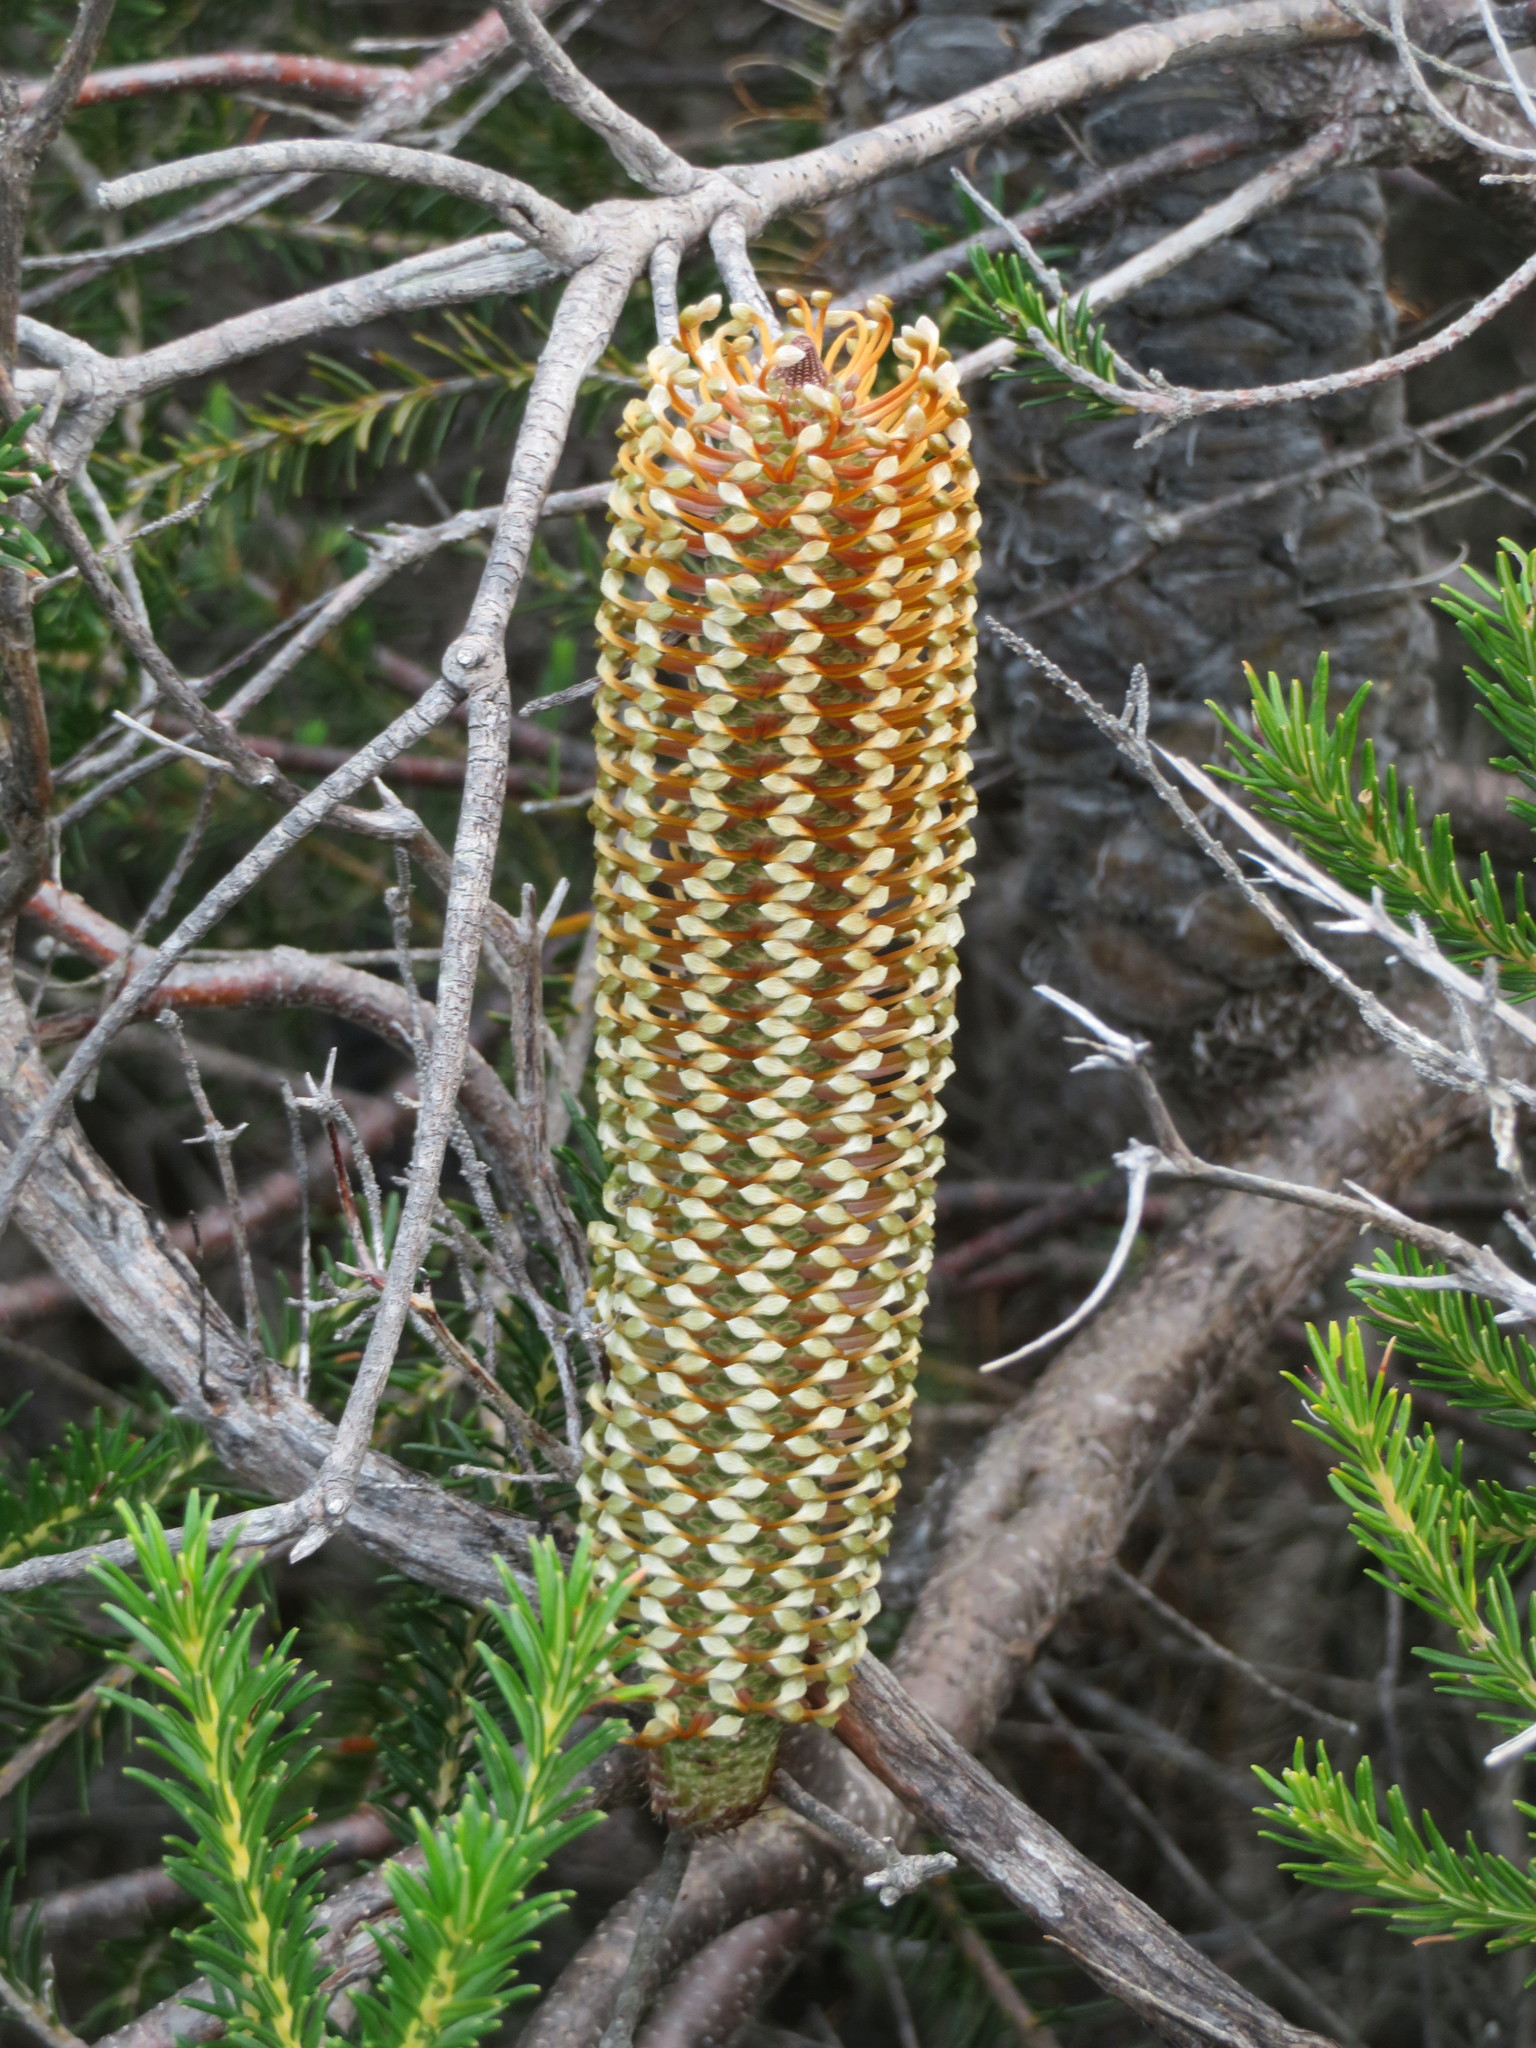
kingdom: Plantae
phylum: Tracheophyta
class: Magnoliopsida
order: Proteales
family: Proteaceae
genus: Banksia
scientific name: Banksia ericifolia
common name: Heath-leaf banksia
